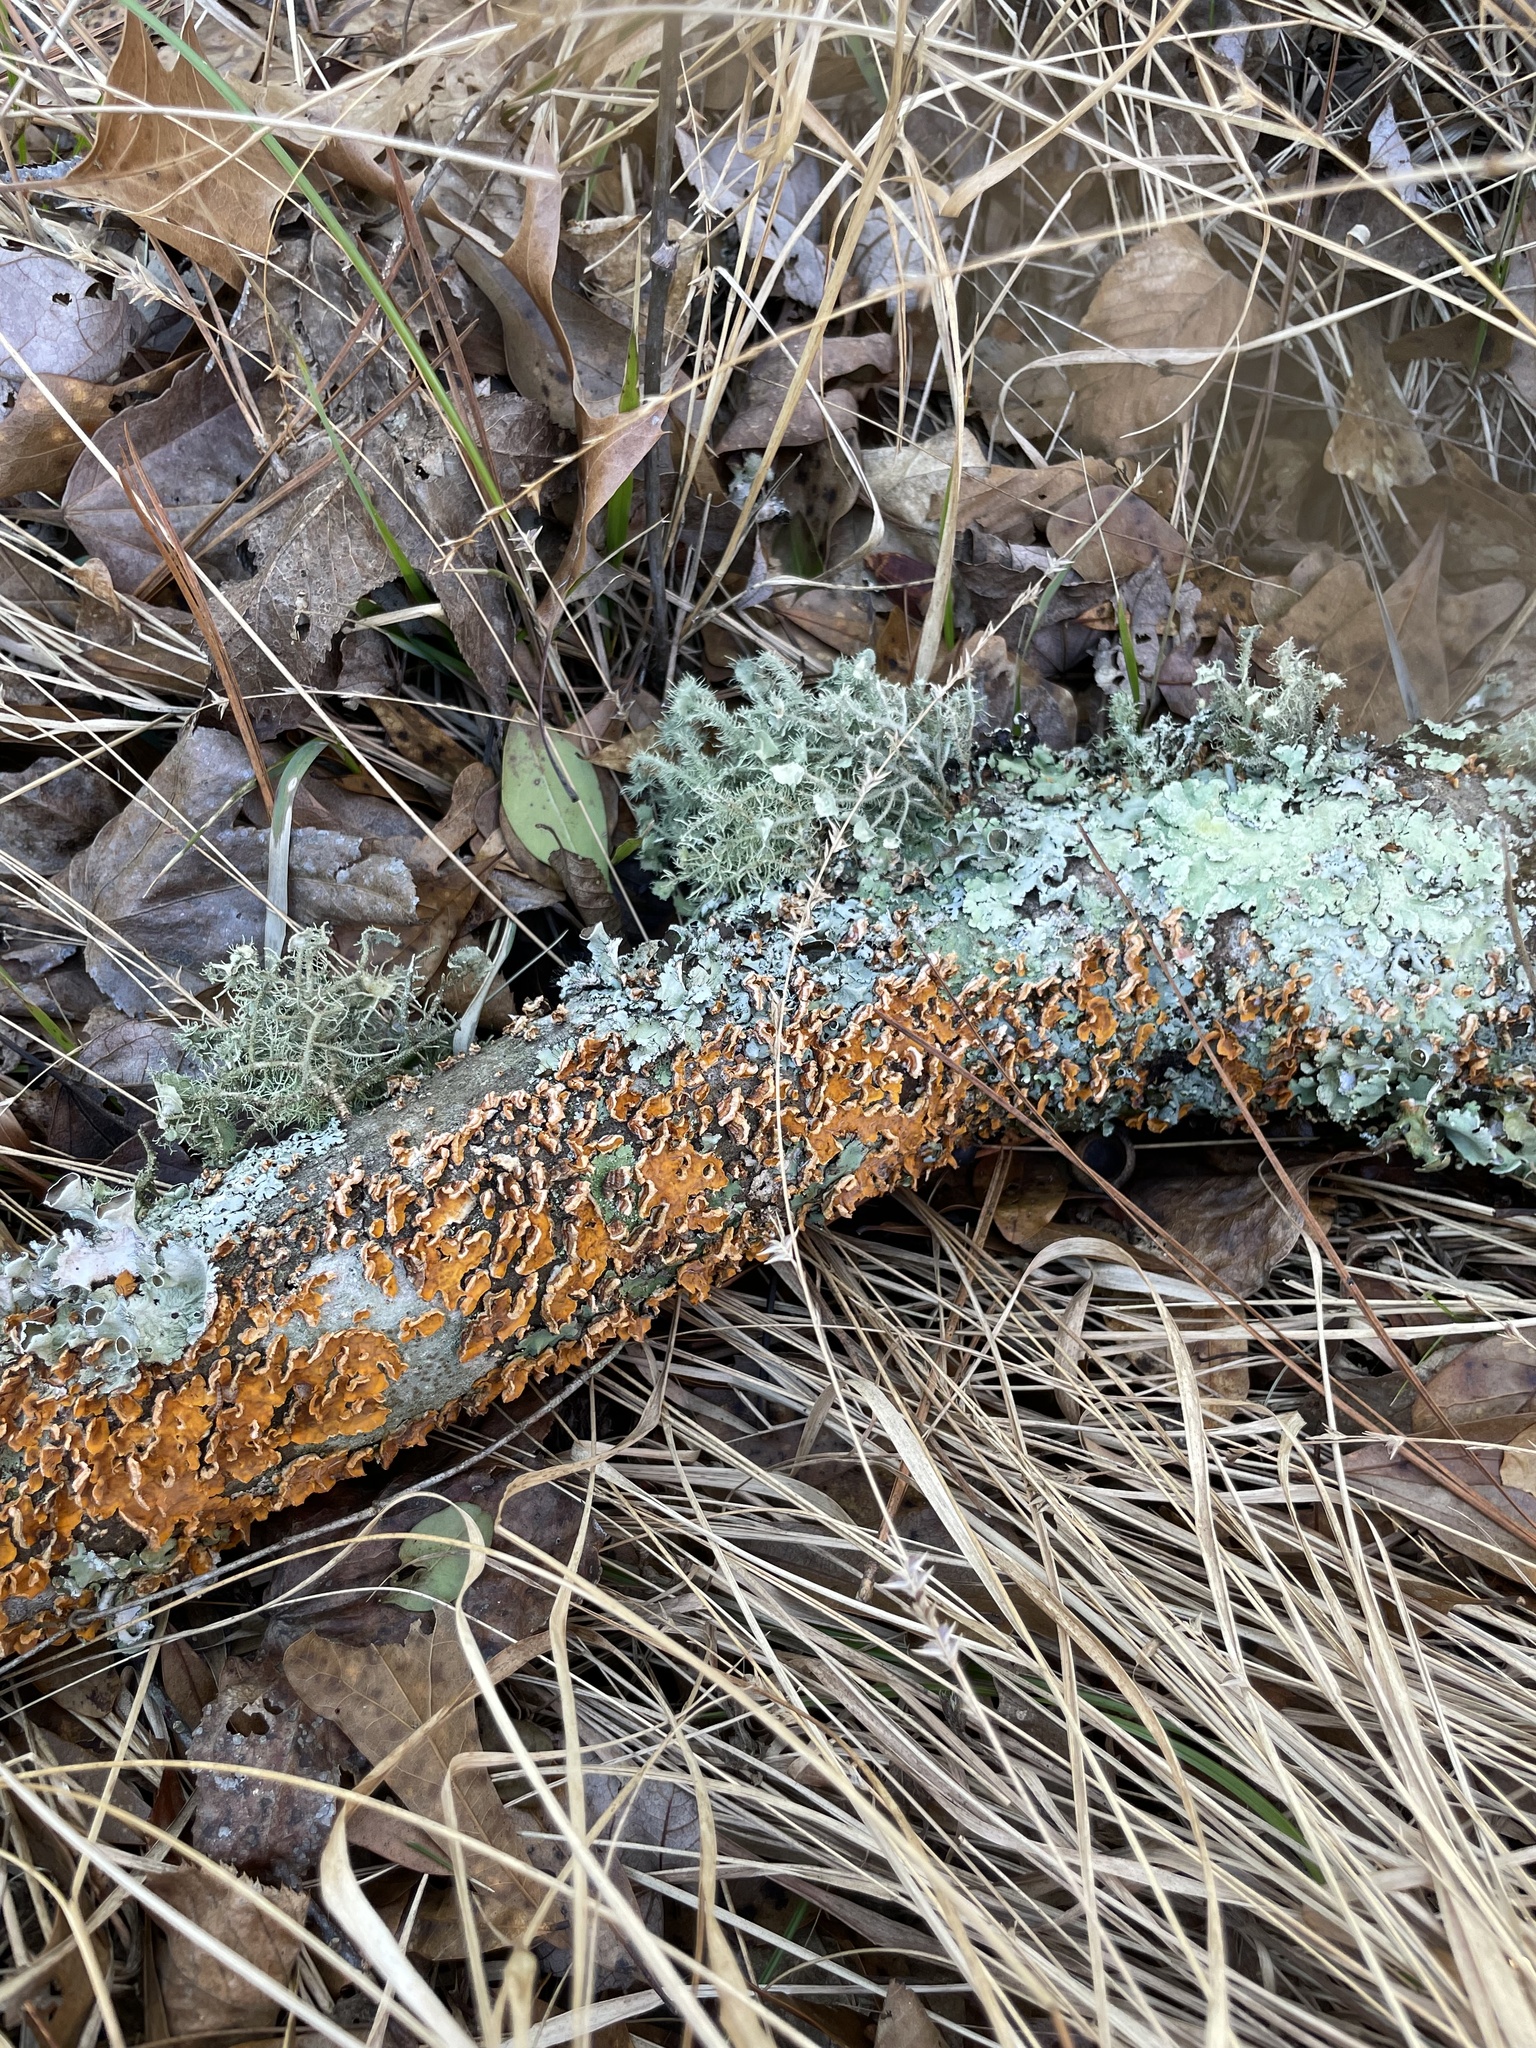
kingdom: Fungi
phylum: Basidiomycota
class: Agaricomycetes
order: Russulales
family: Stereaceae
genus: Stereum
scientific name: Stereum complicatum
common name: Crowded parchment
